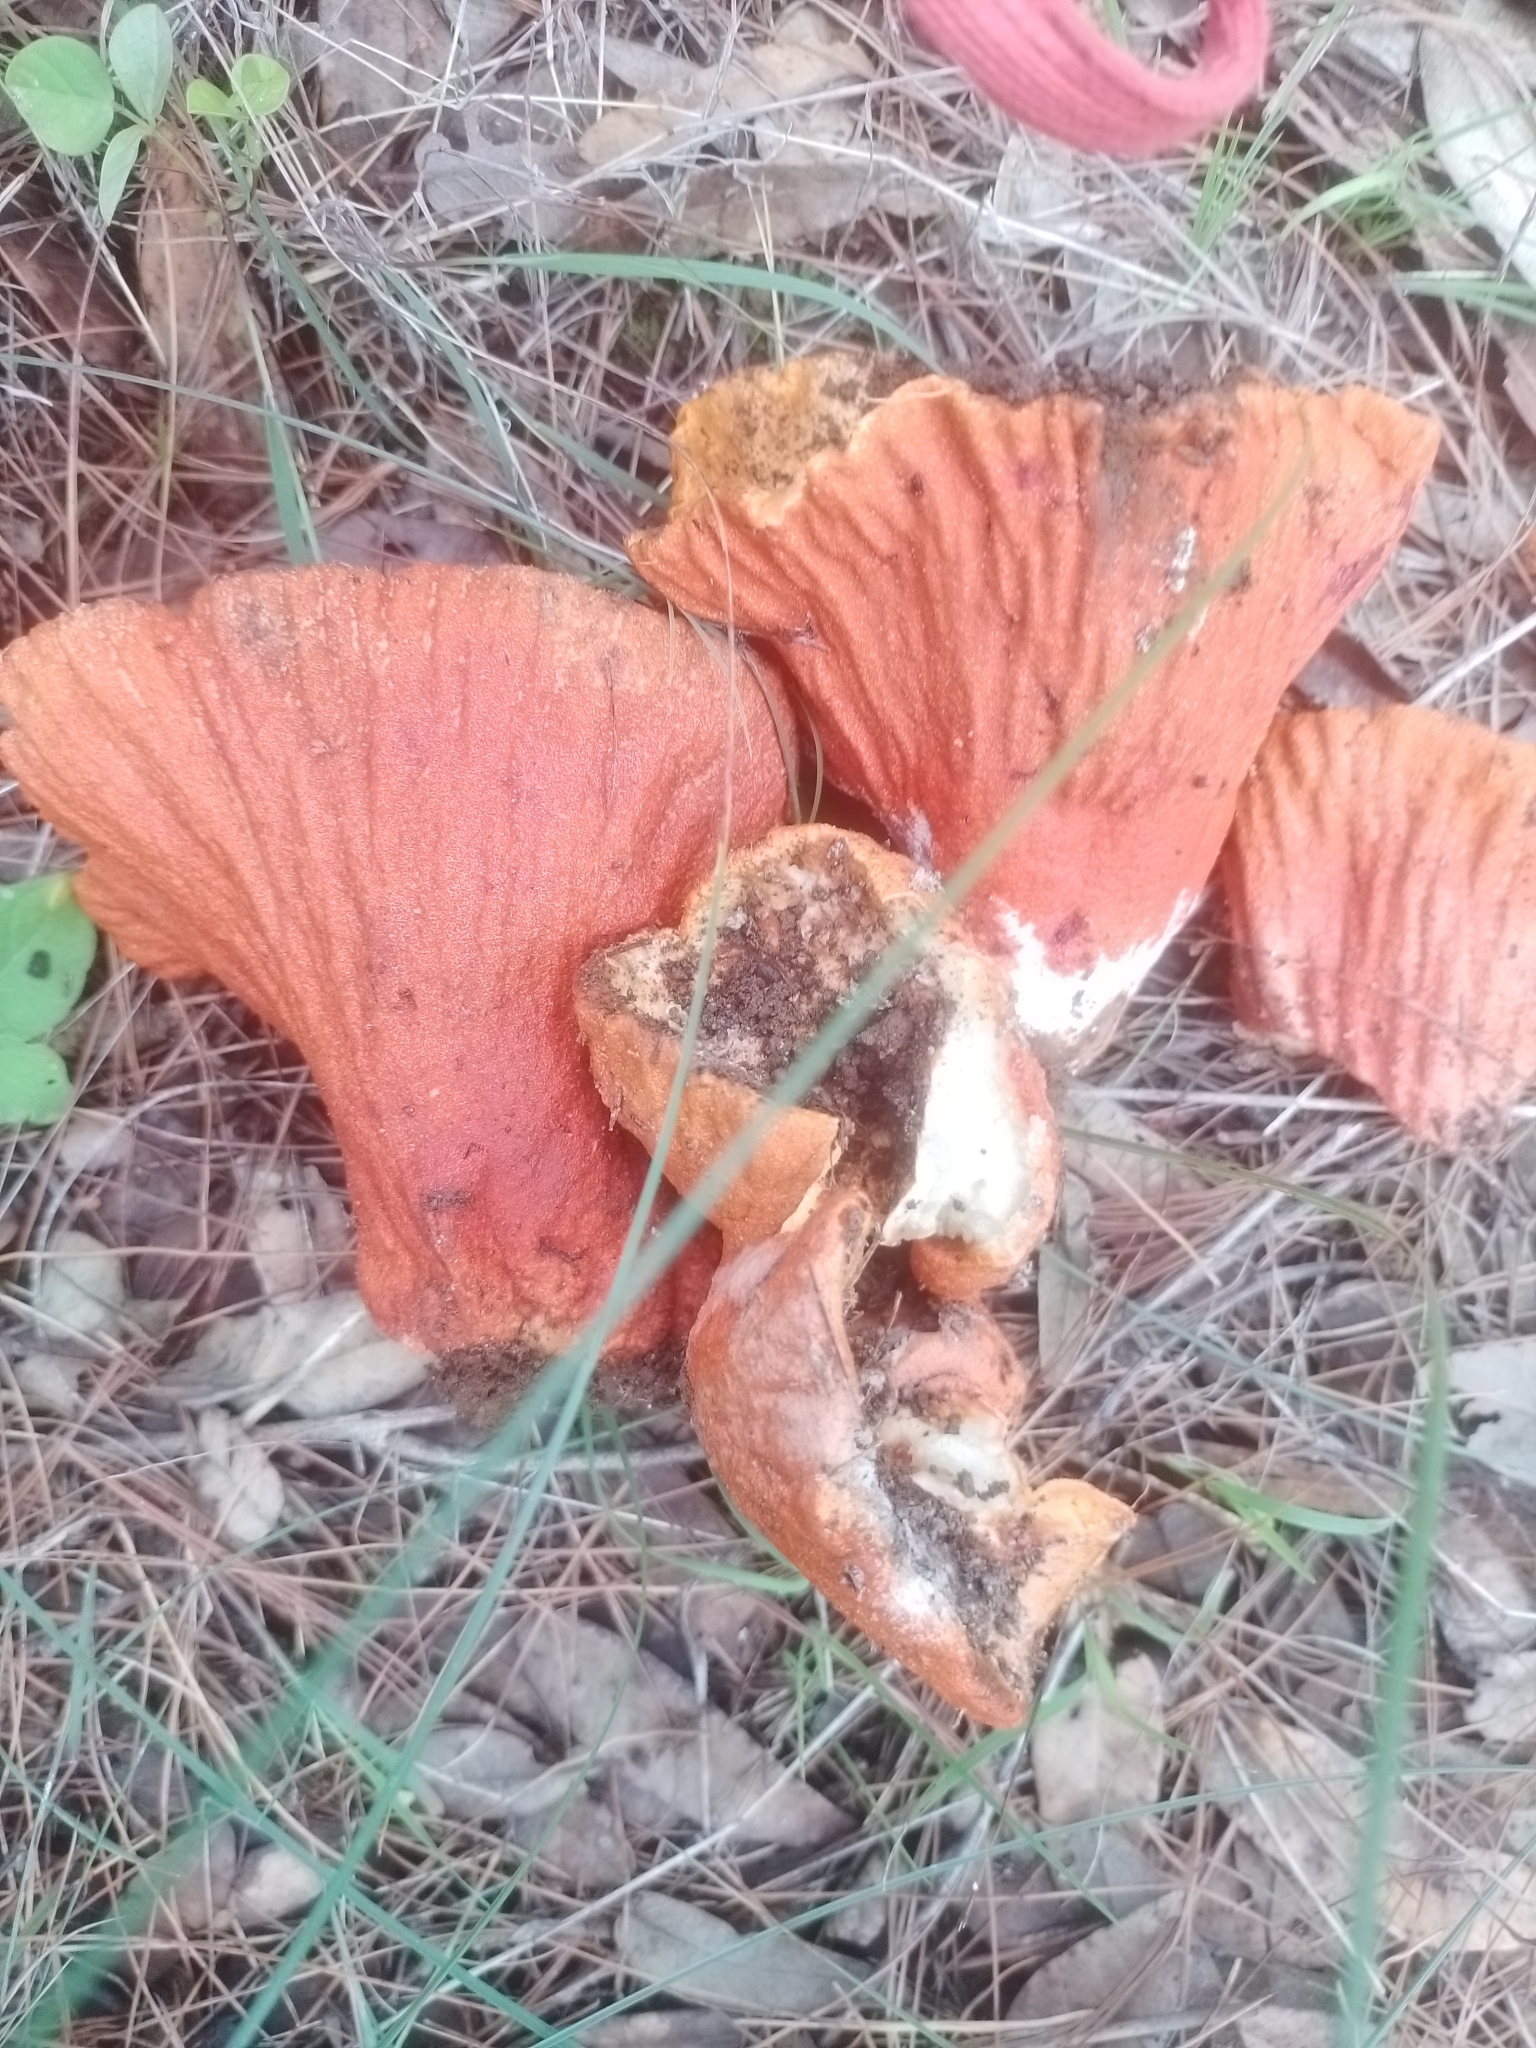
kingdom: Fungi
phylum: Ascomycota
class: Sordariomycetes
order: Hypocreales
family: Hypocreaceae
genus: Hypomyces
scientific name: Hypomyces lactifluorum
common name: Lobster mushroom
